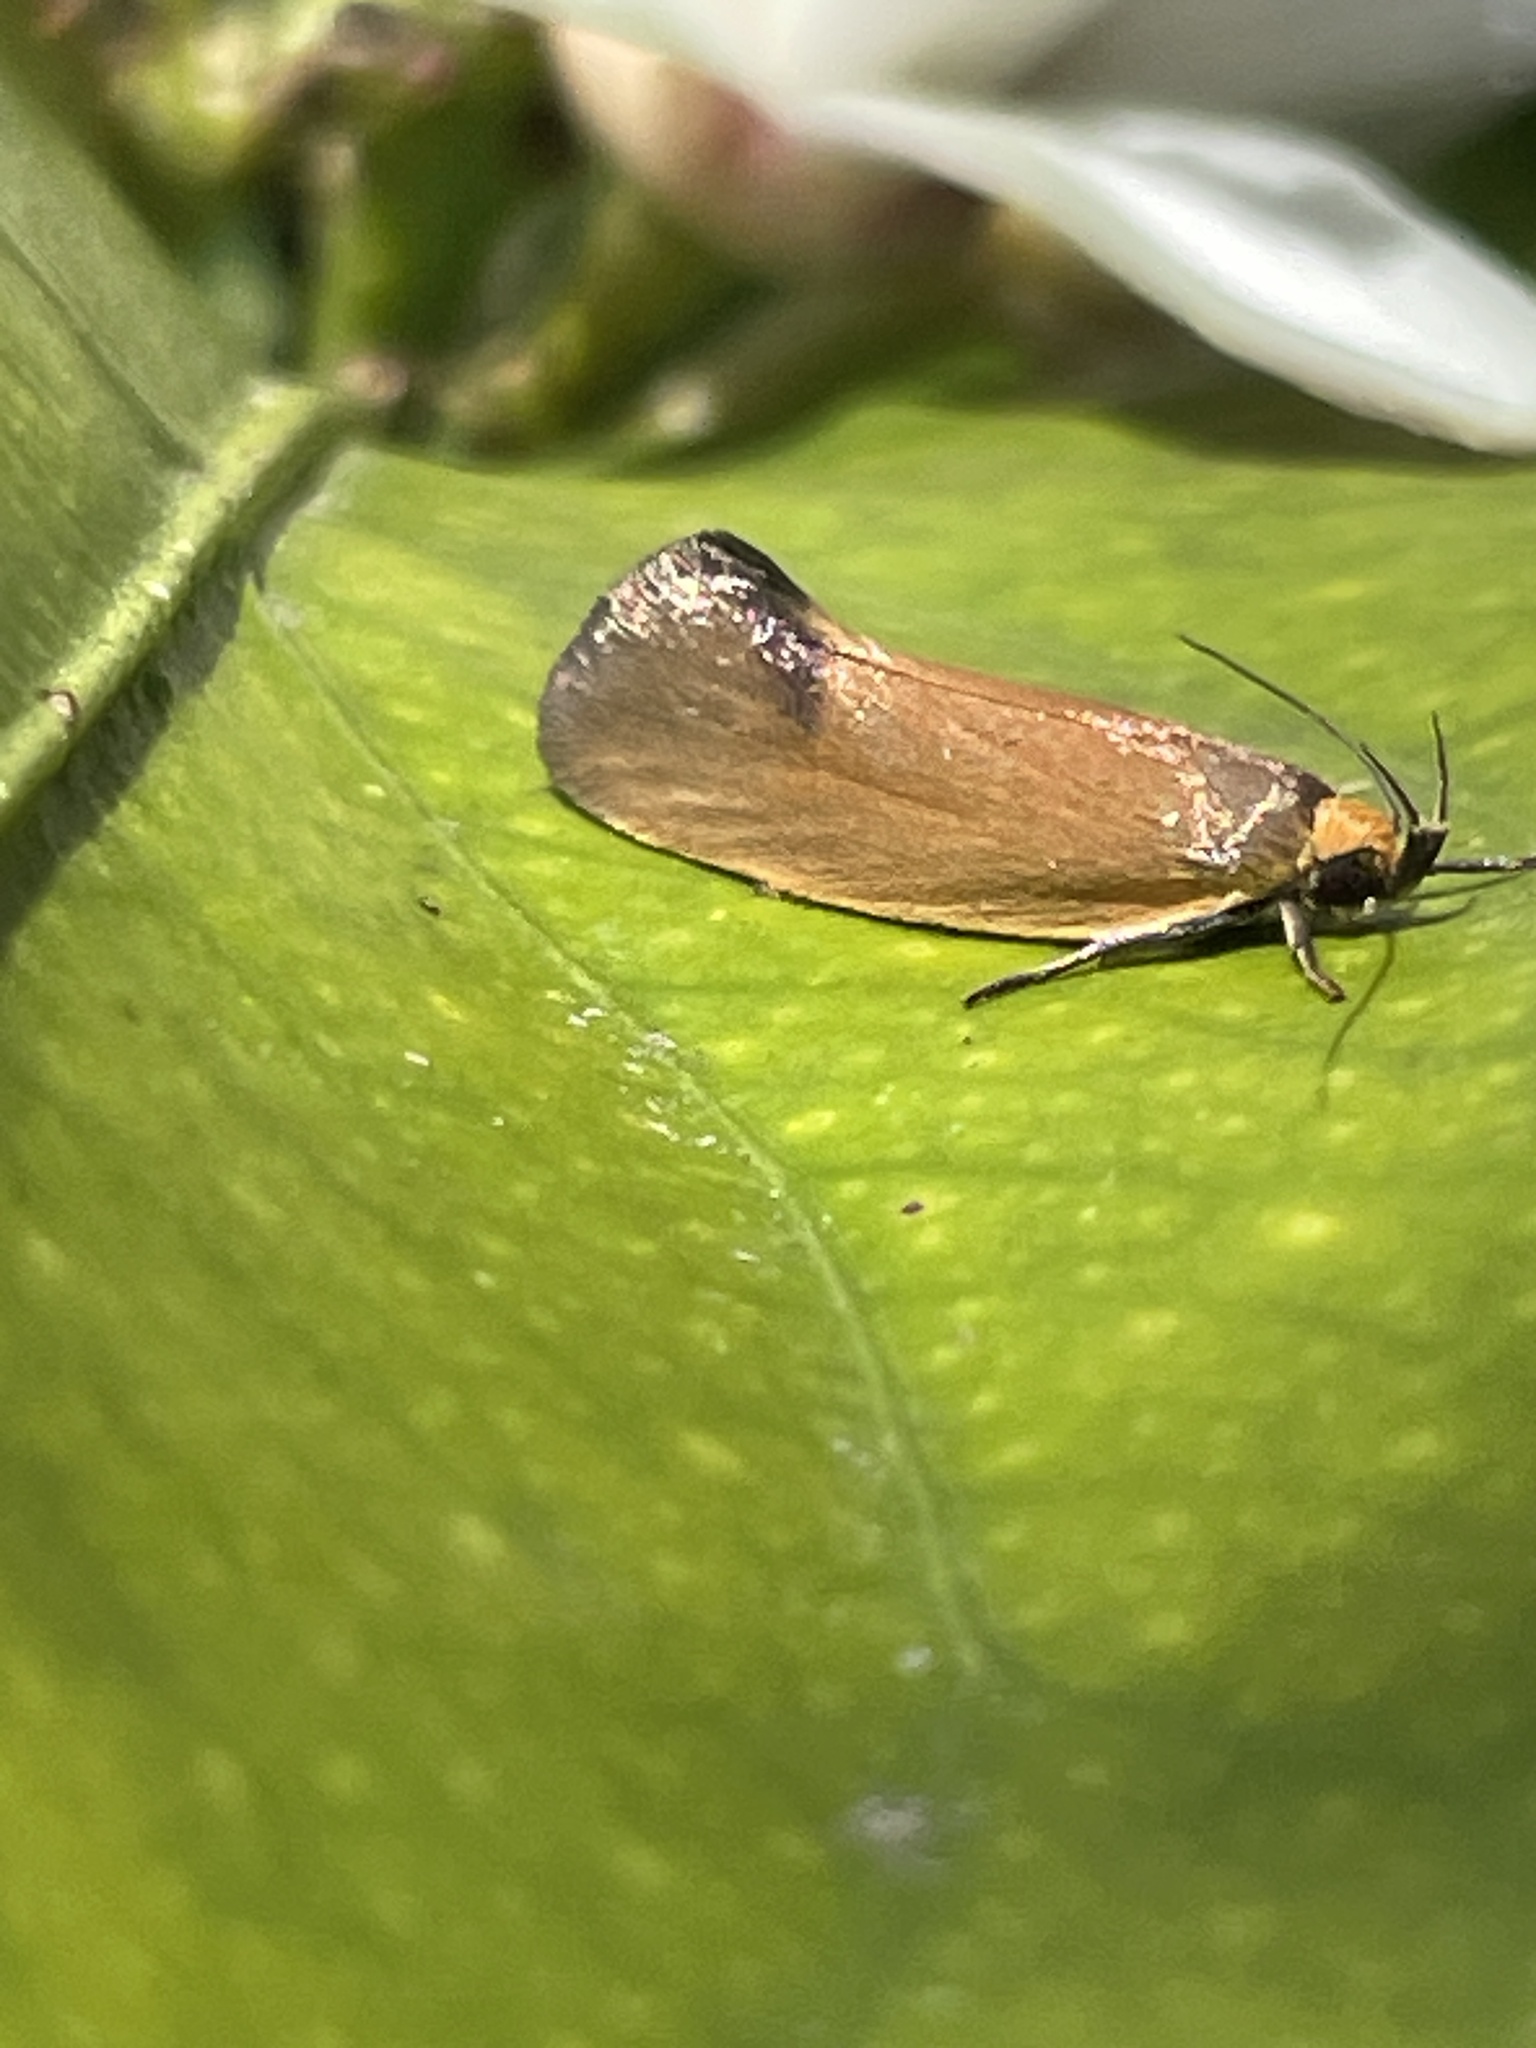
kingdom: Animalia
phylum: Arthropoda
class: Insecta
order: Lepidoptera
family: Oecophoridae
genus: Delexocha
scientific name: Delexocha ochrocausta
